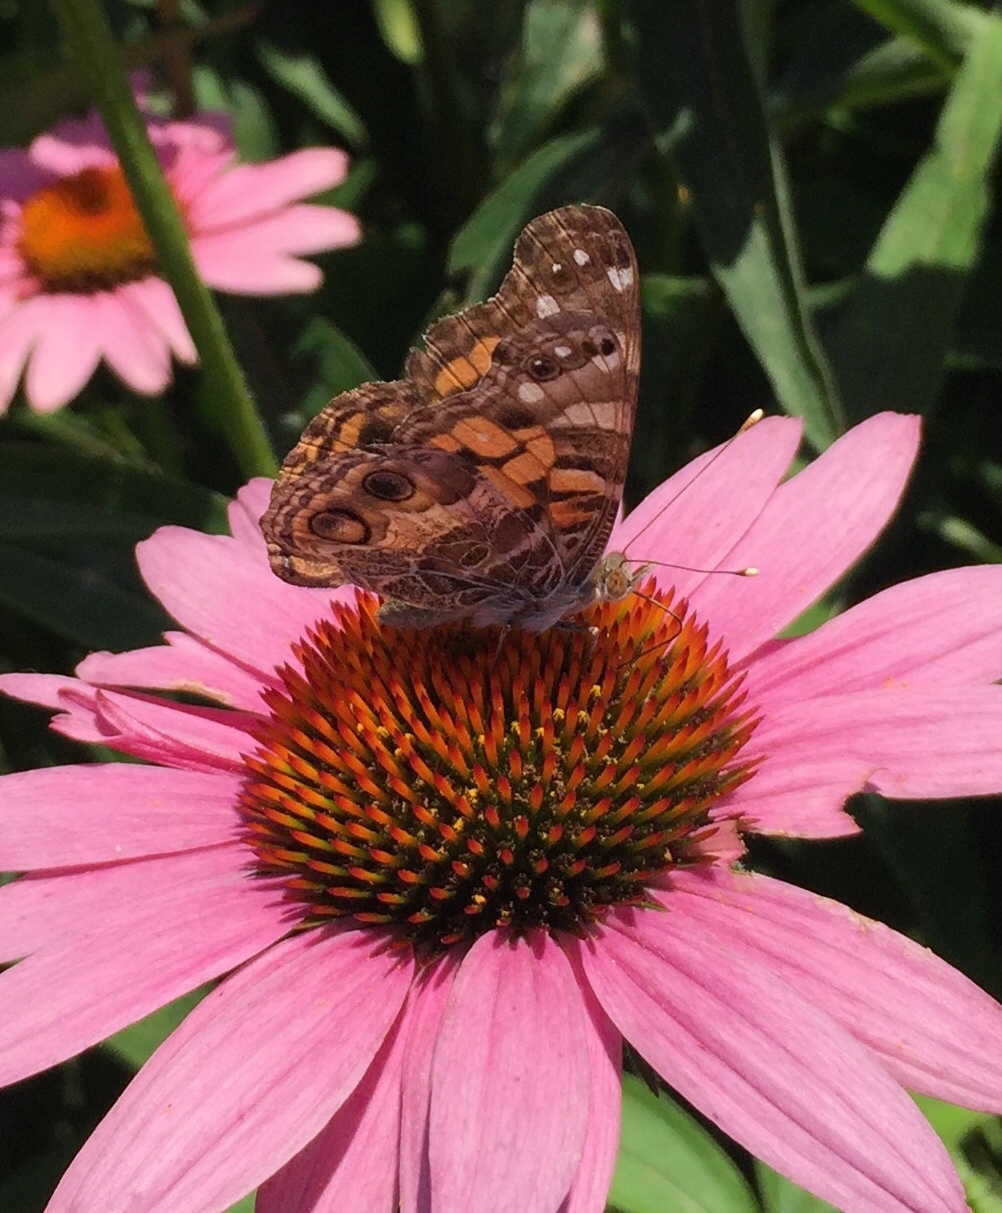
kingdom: Animalia
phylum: Arthropoda
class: Insecta
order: Lepidoptera
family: Nymphalidae
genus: Vanessa
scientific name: Vanessa virginiensis
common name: American lady
